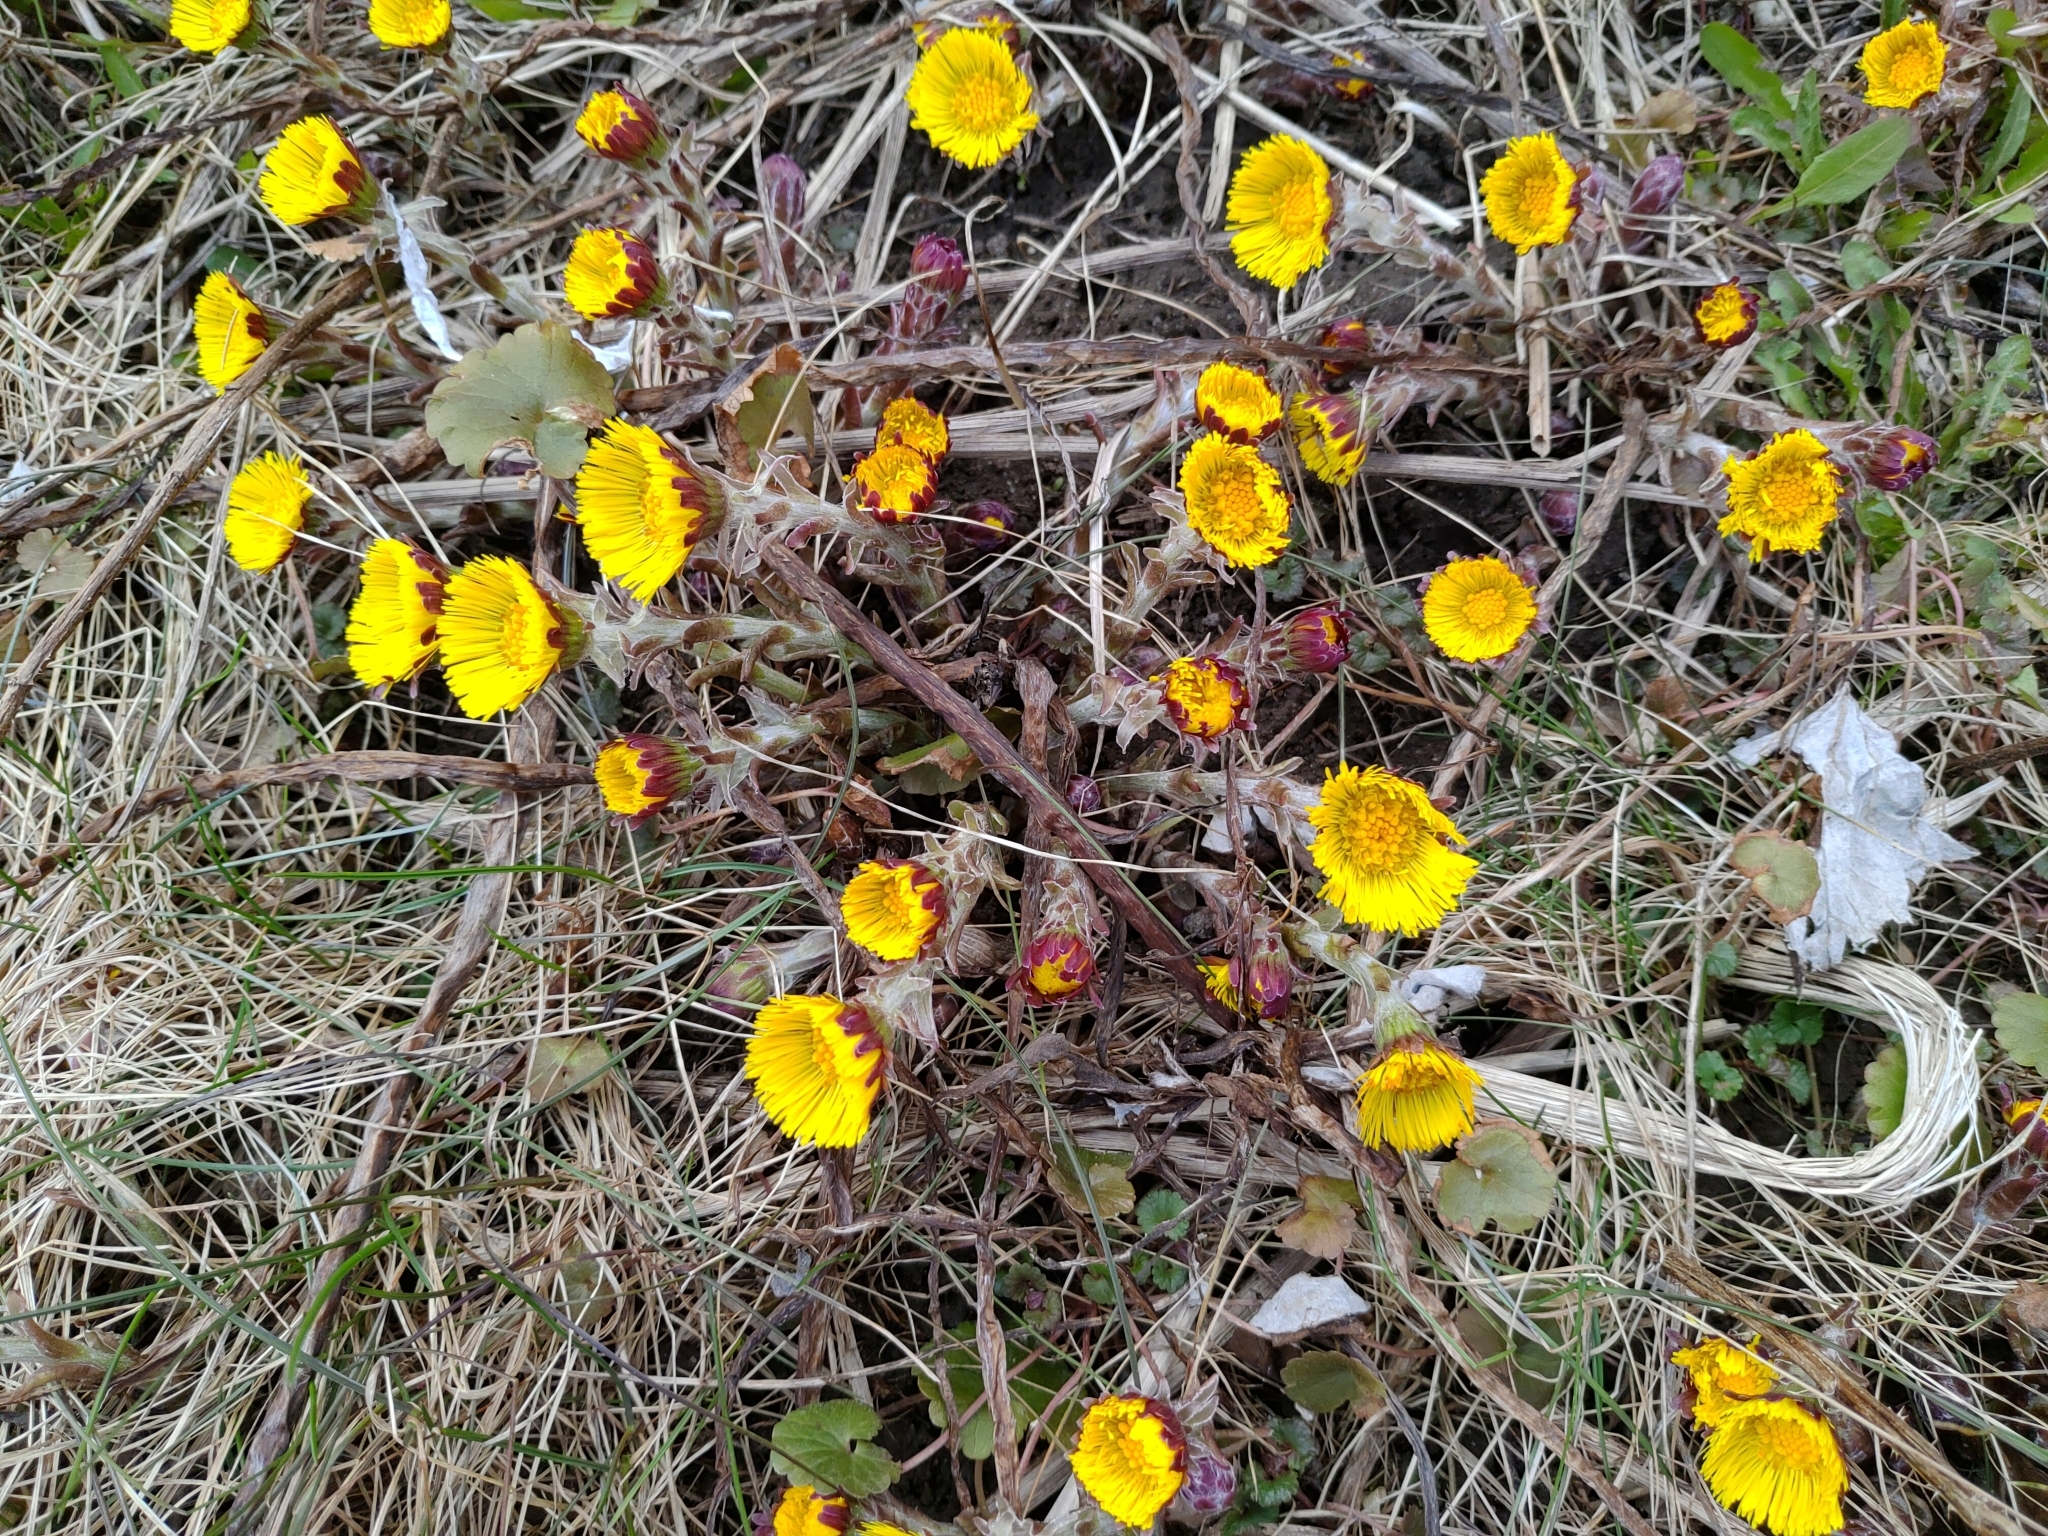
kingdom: Plantae
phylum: Tracheophyta
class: Magnoliopsida
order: Asterales
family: Asteraceae
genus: Tussilago
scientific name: Tussilago farfara
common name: Coltsfoot
